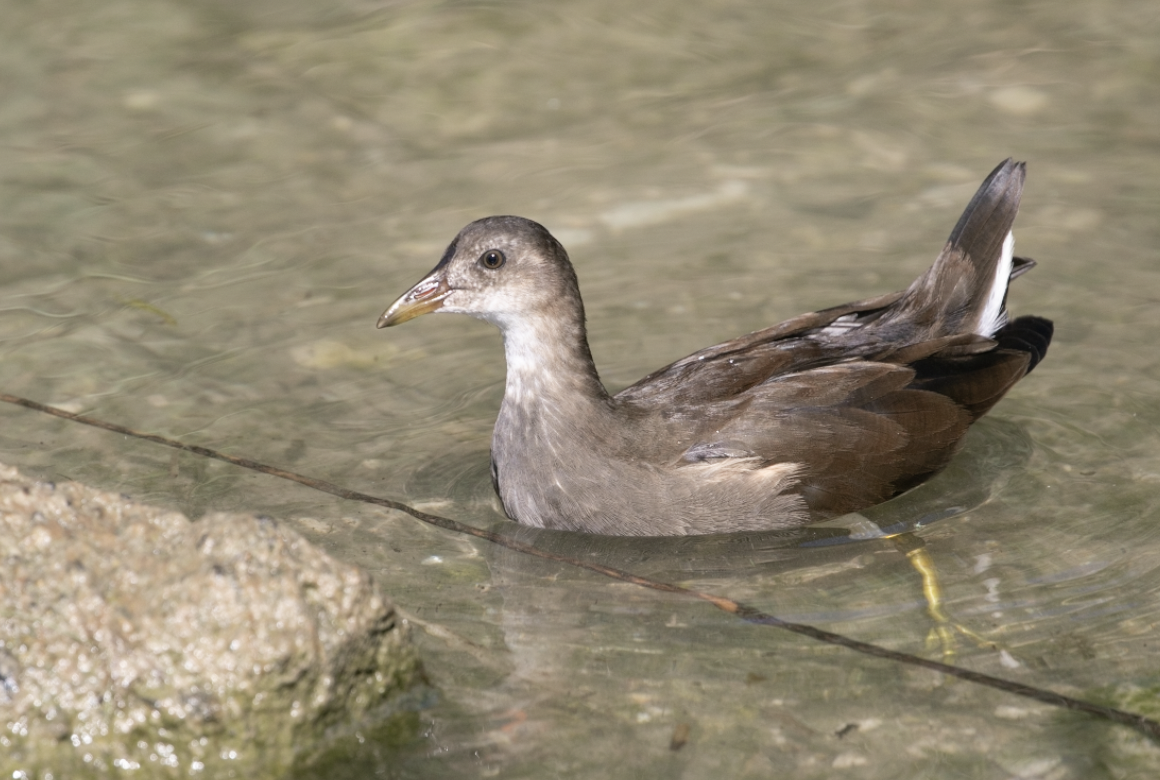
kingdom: Animalia
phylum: Chordata
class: Aves
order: Gruiformes
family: Rallidae
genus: Gallinula
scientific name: Gallinula chloropus
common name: Common moorhen
